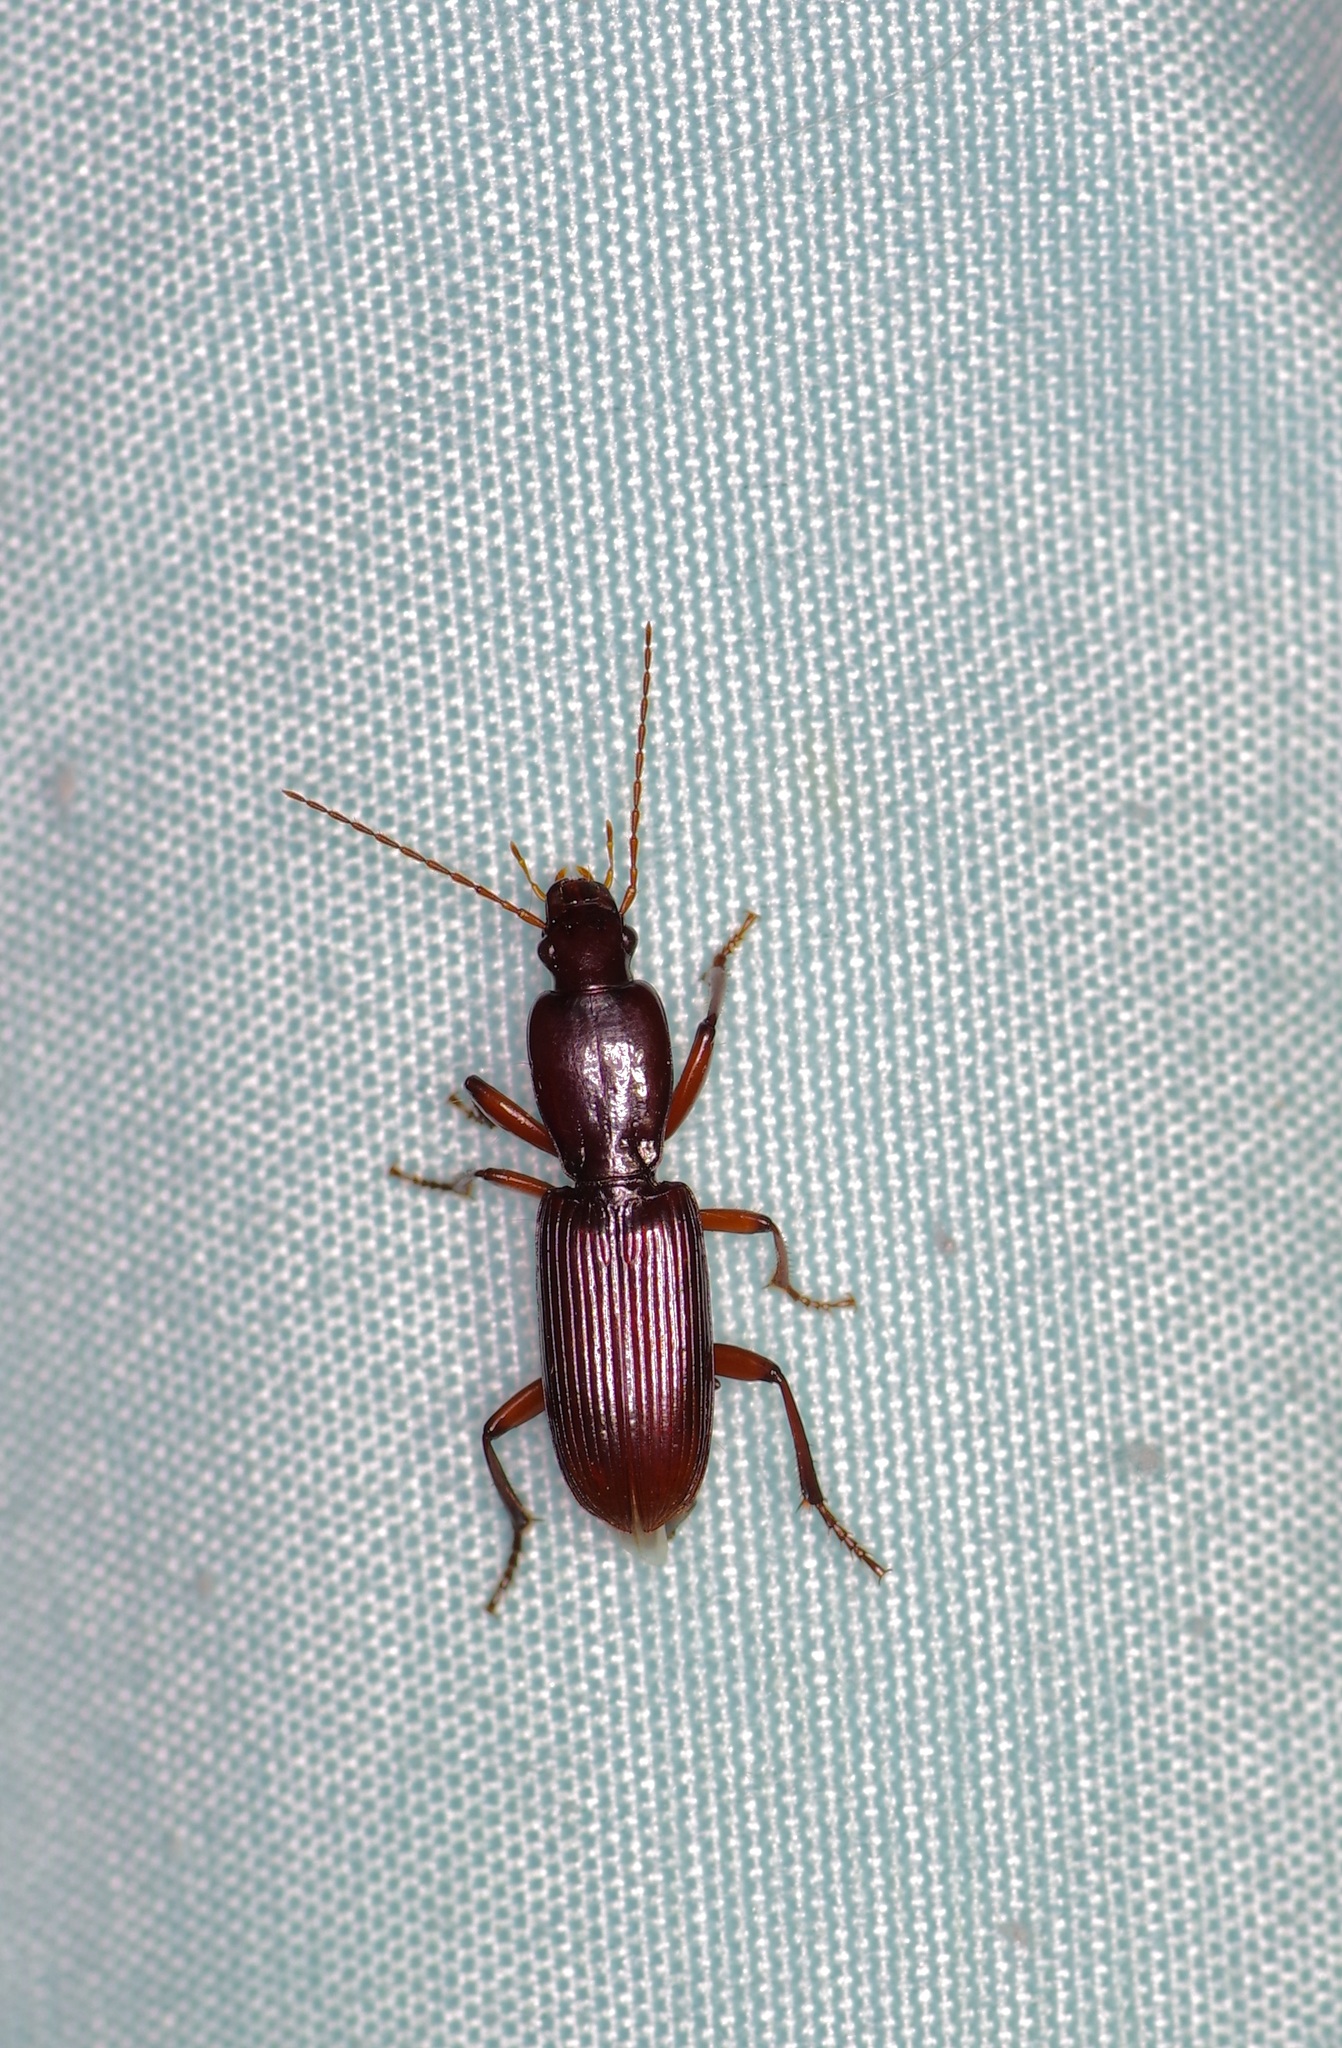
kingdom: Animalia
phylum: Arthropoda
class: Insecta
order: Coleoptera
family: Carabidae
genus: Stenomorphus
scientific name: Stenomorphus californicus
